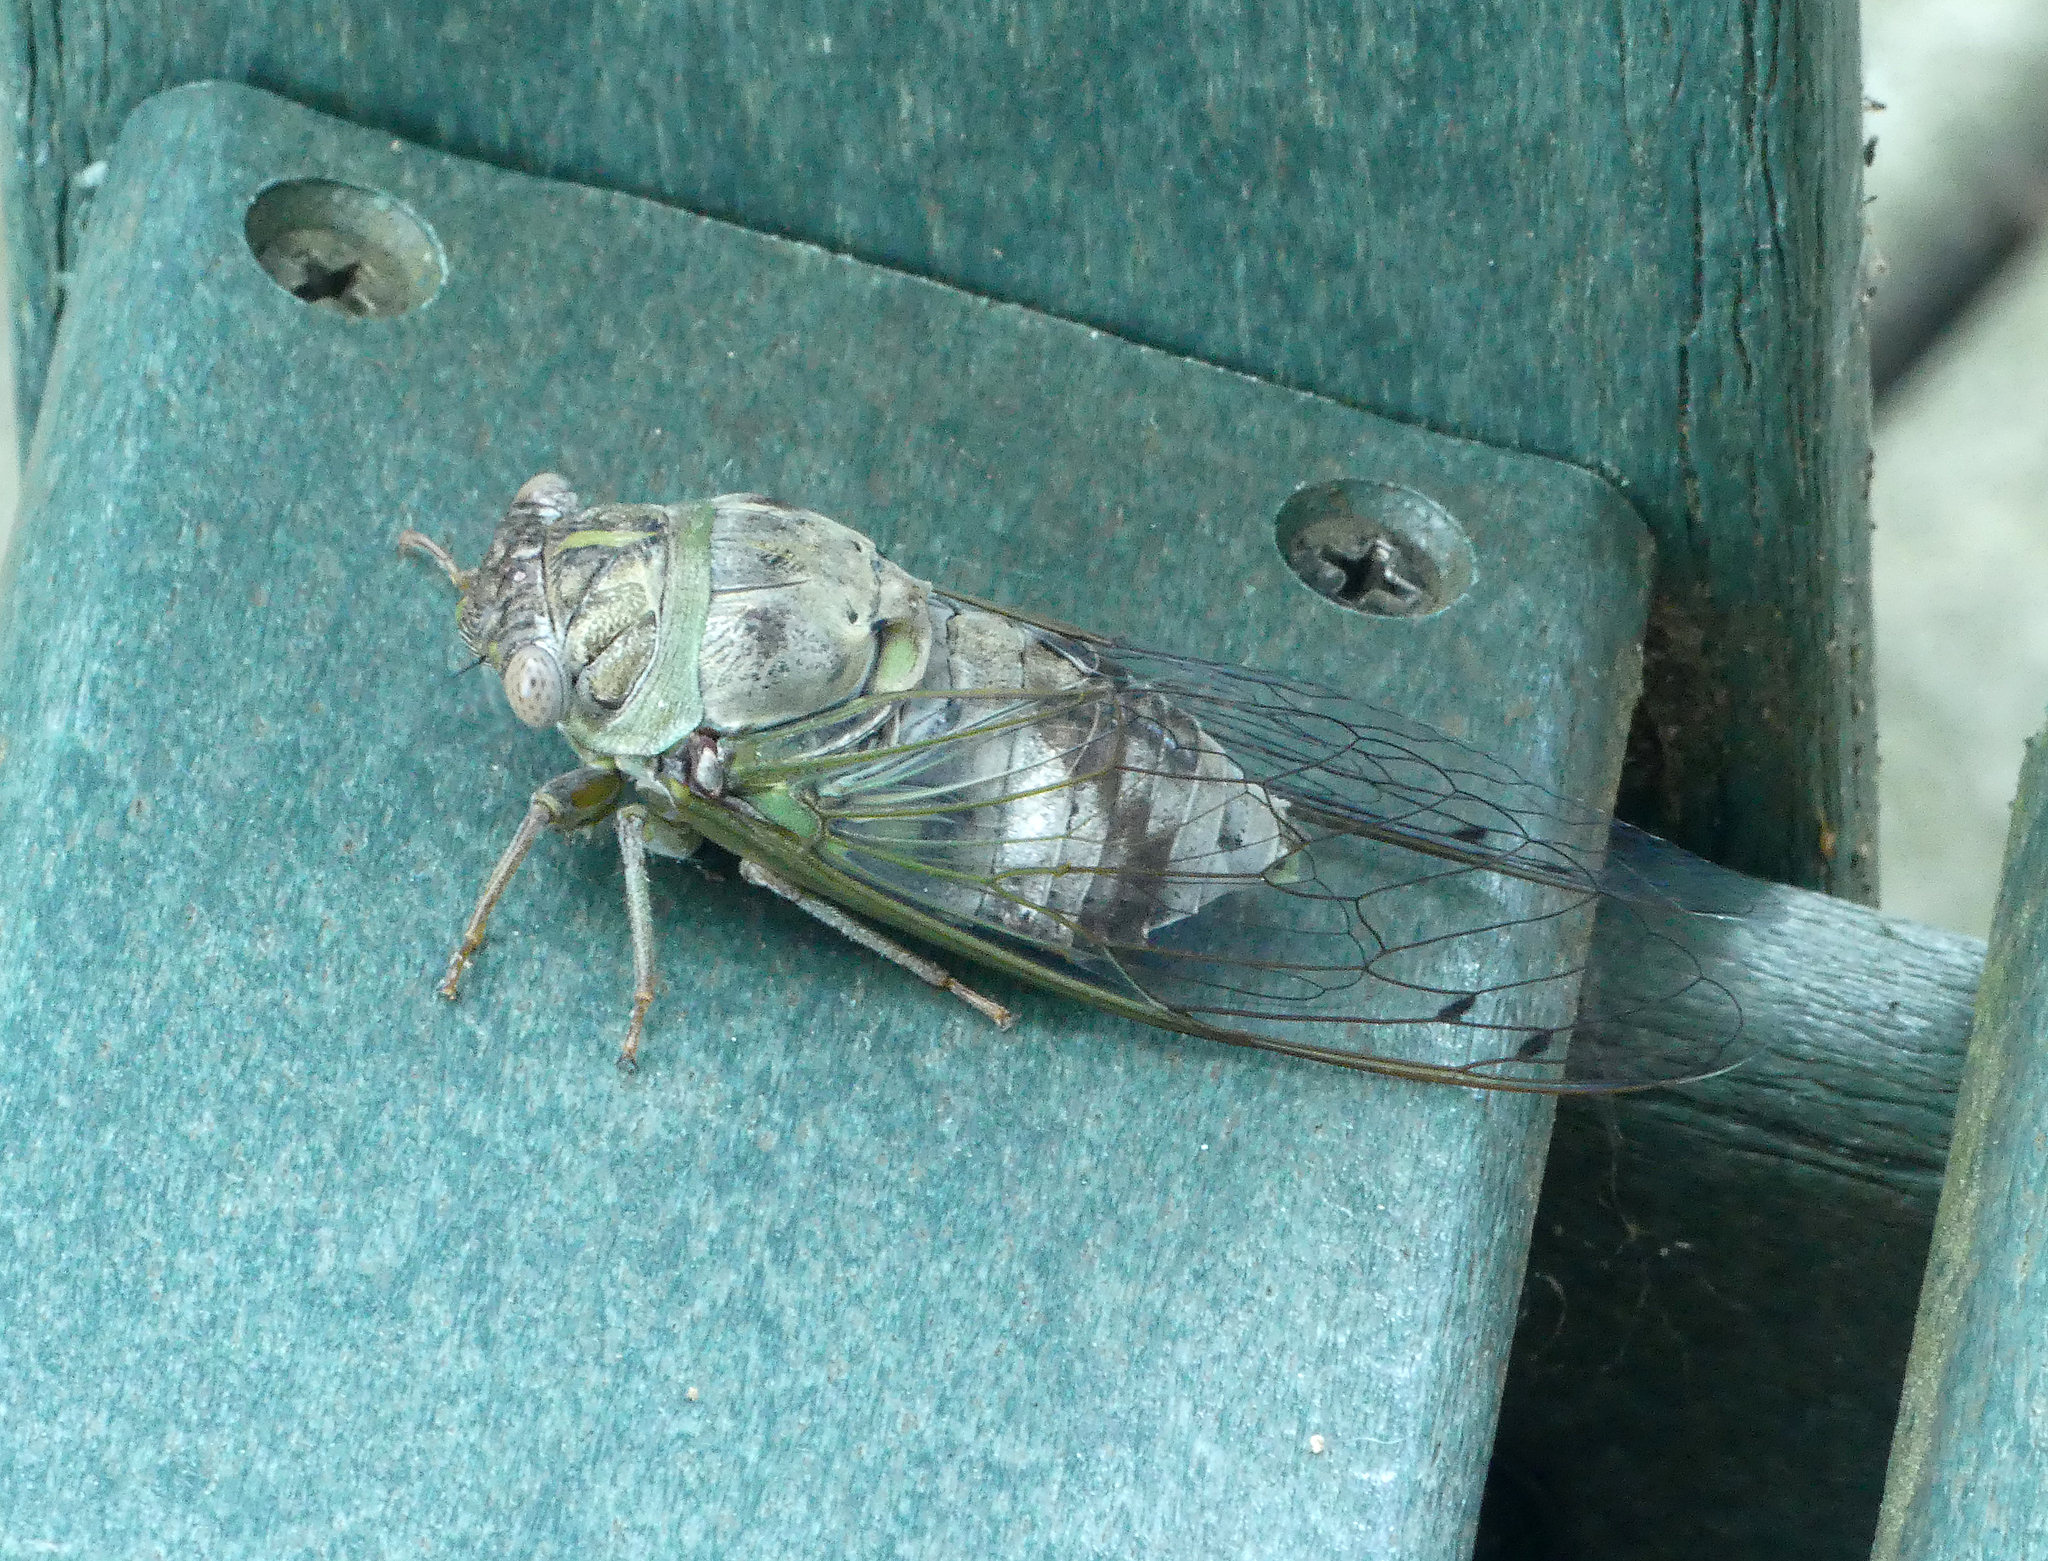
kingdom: Animalia
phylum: Arthropoda
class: Insecta
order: Hemiptera
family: Cicadidae
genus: Diceroprocta
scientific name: Diceroprocta grossa
